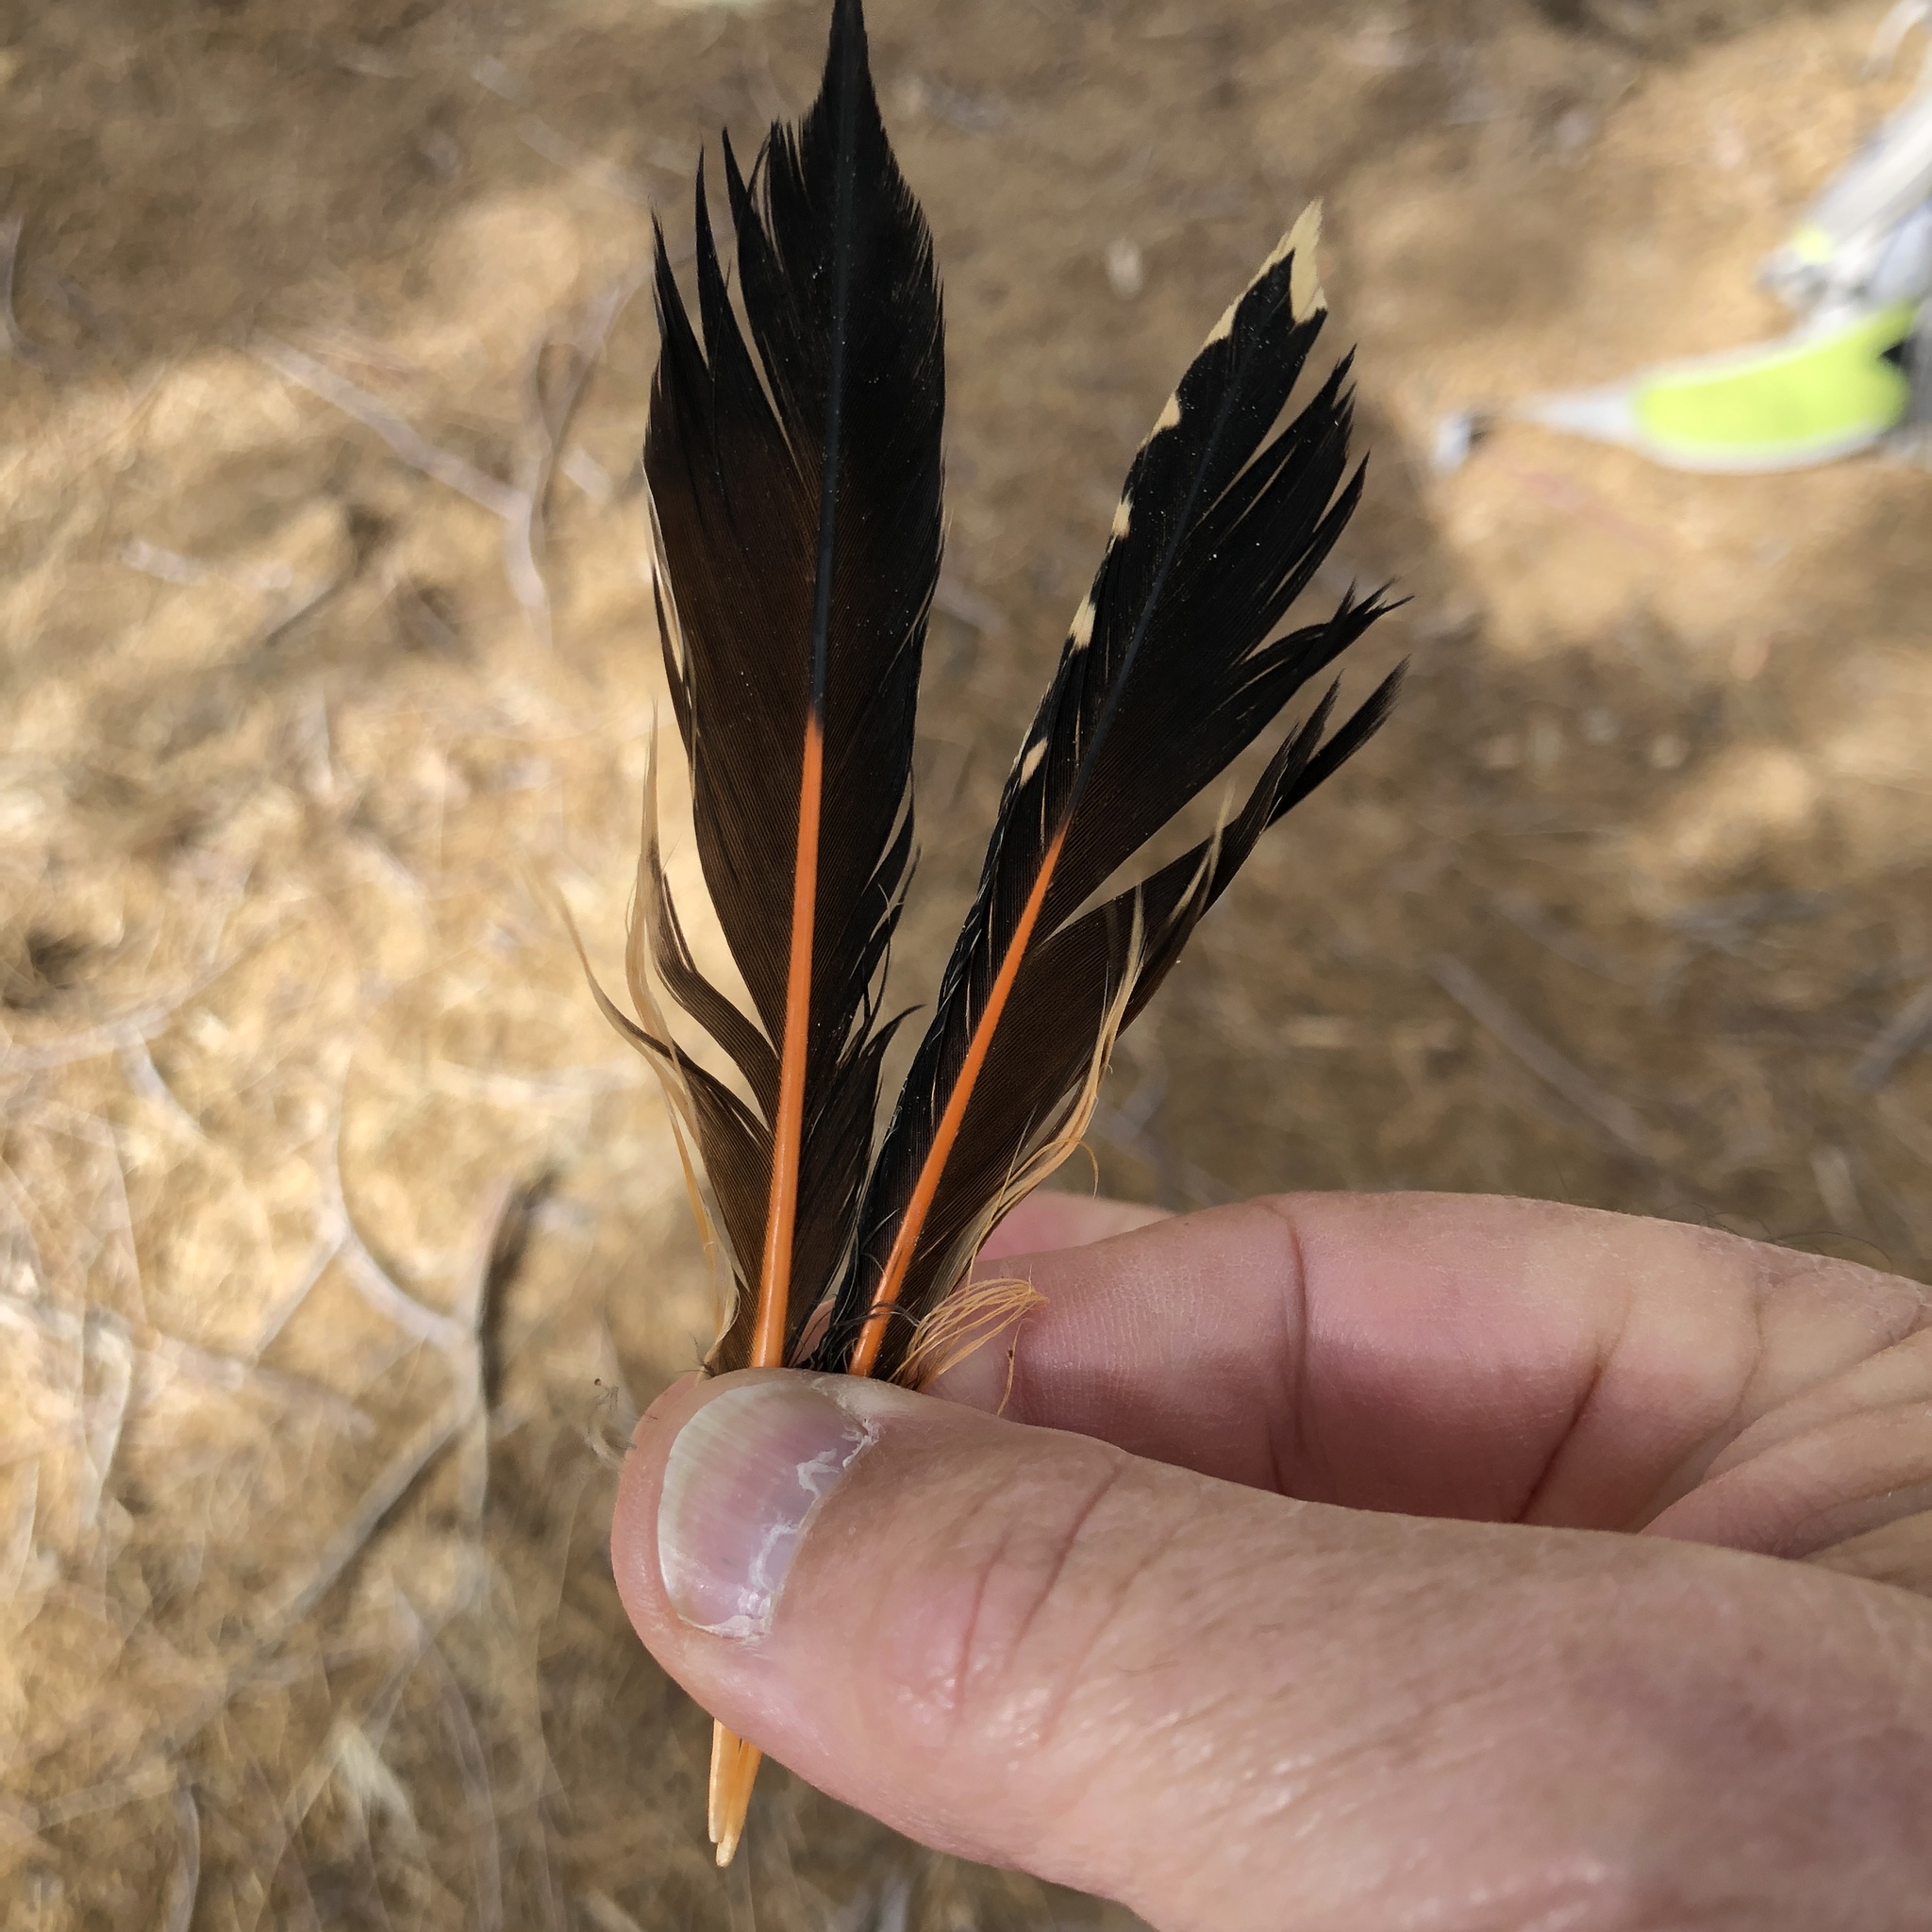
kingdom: Animalia
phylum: Chordata
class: Aves
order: Piciformes
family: Picidae
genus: Colaptes
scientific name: Colaptes auratus
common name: Northern flicker
